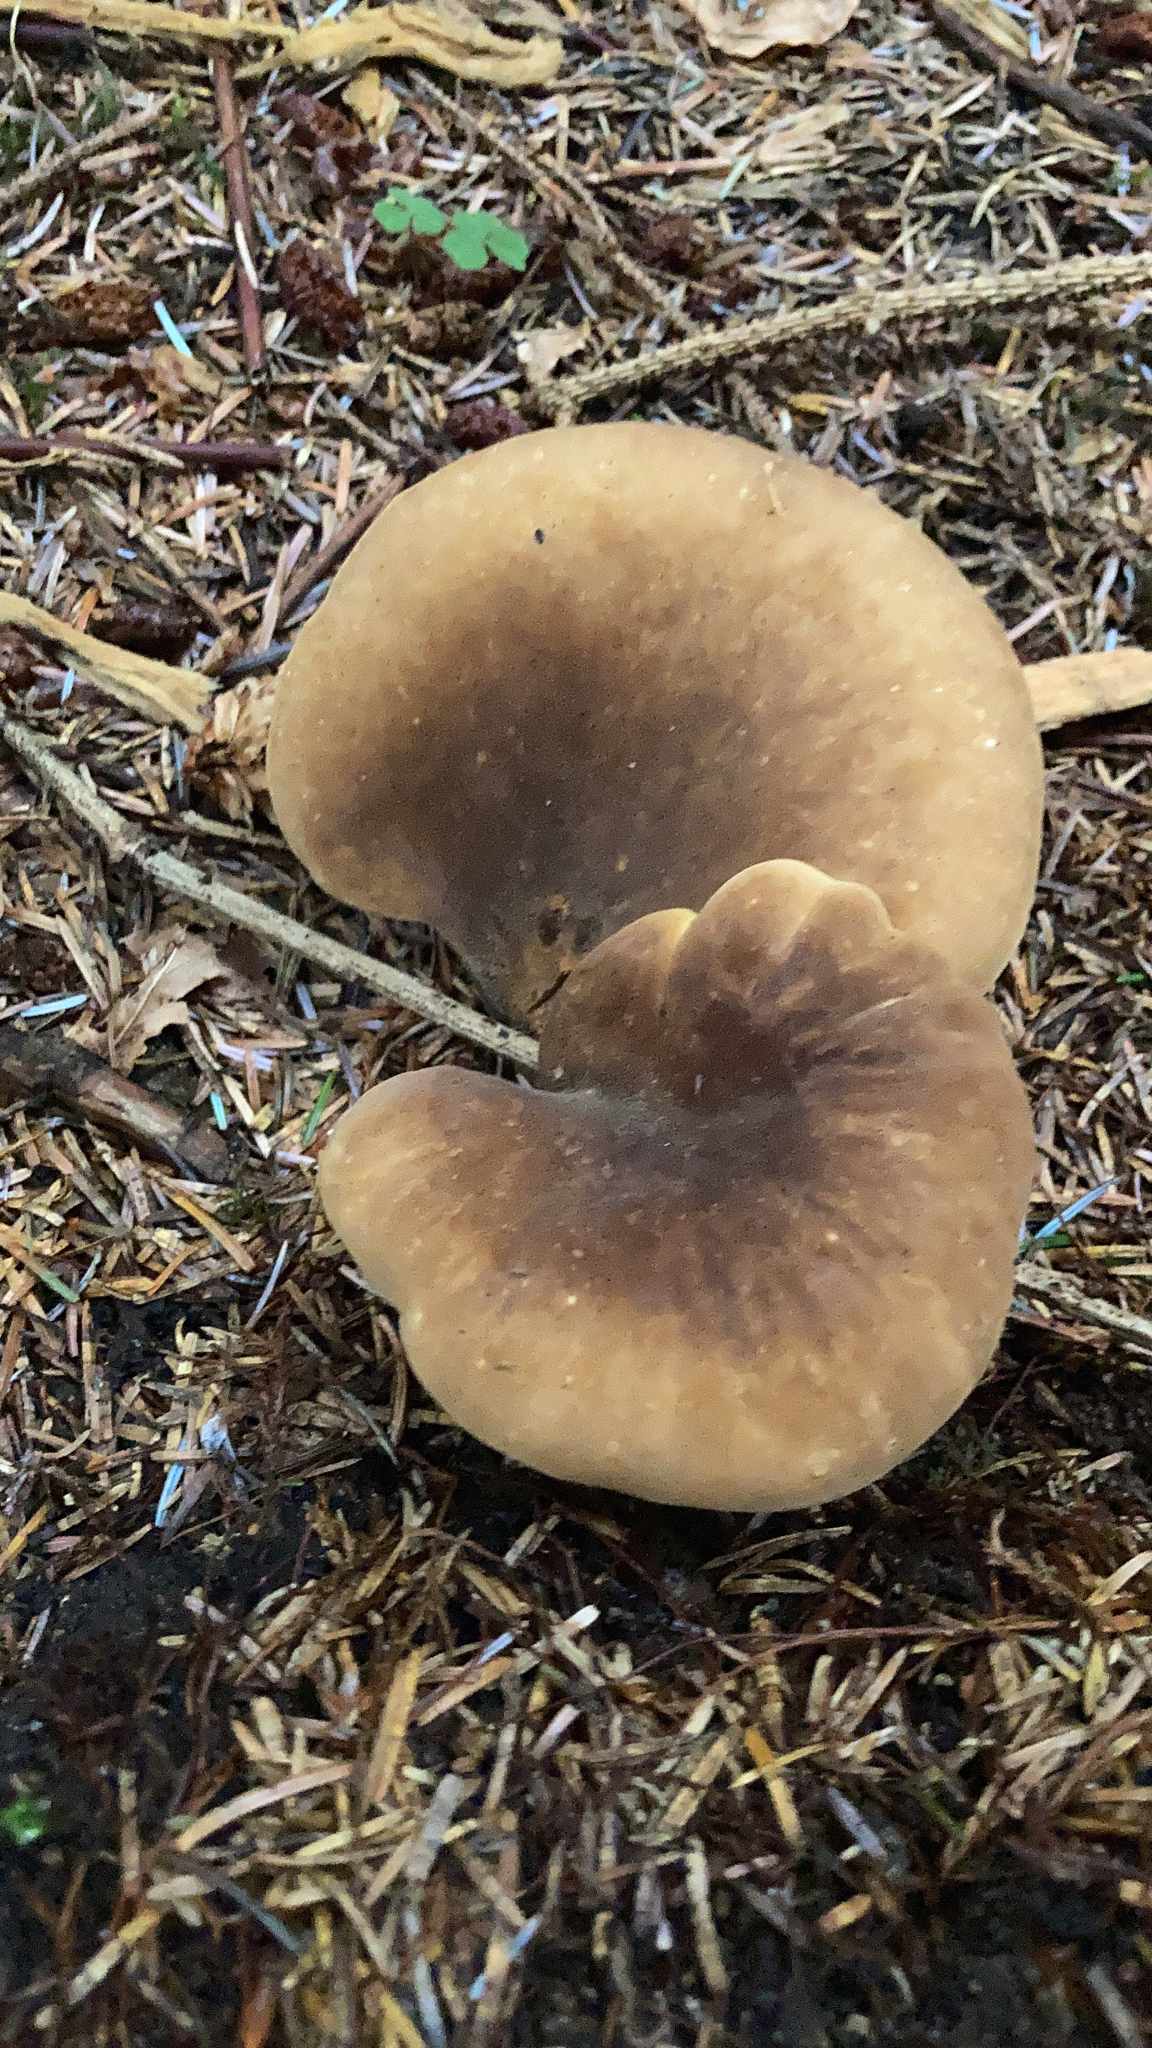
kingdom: Fungi
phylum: Basidiomycota
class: Agaricomycetes
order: Boletales
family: Tapinellaceae
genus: Tapinella
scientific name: Tapinella atrotomentosa
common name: Velvet rollrim
